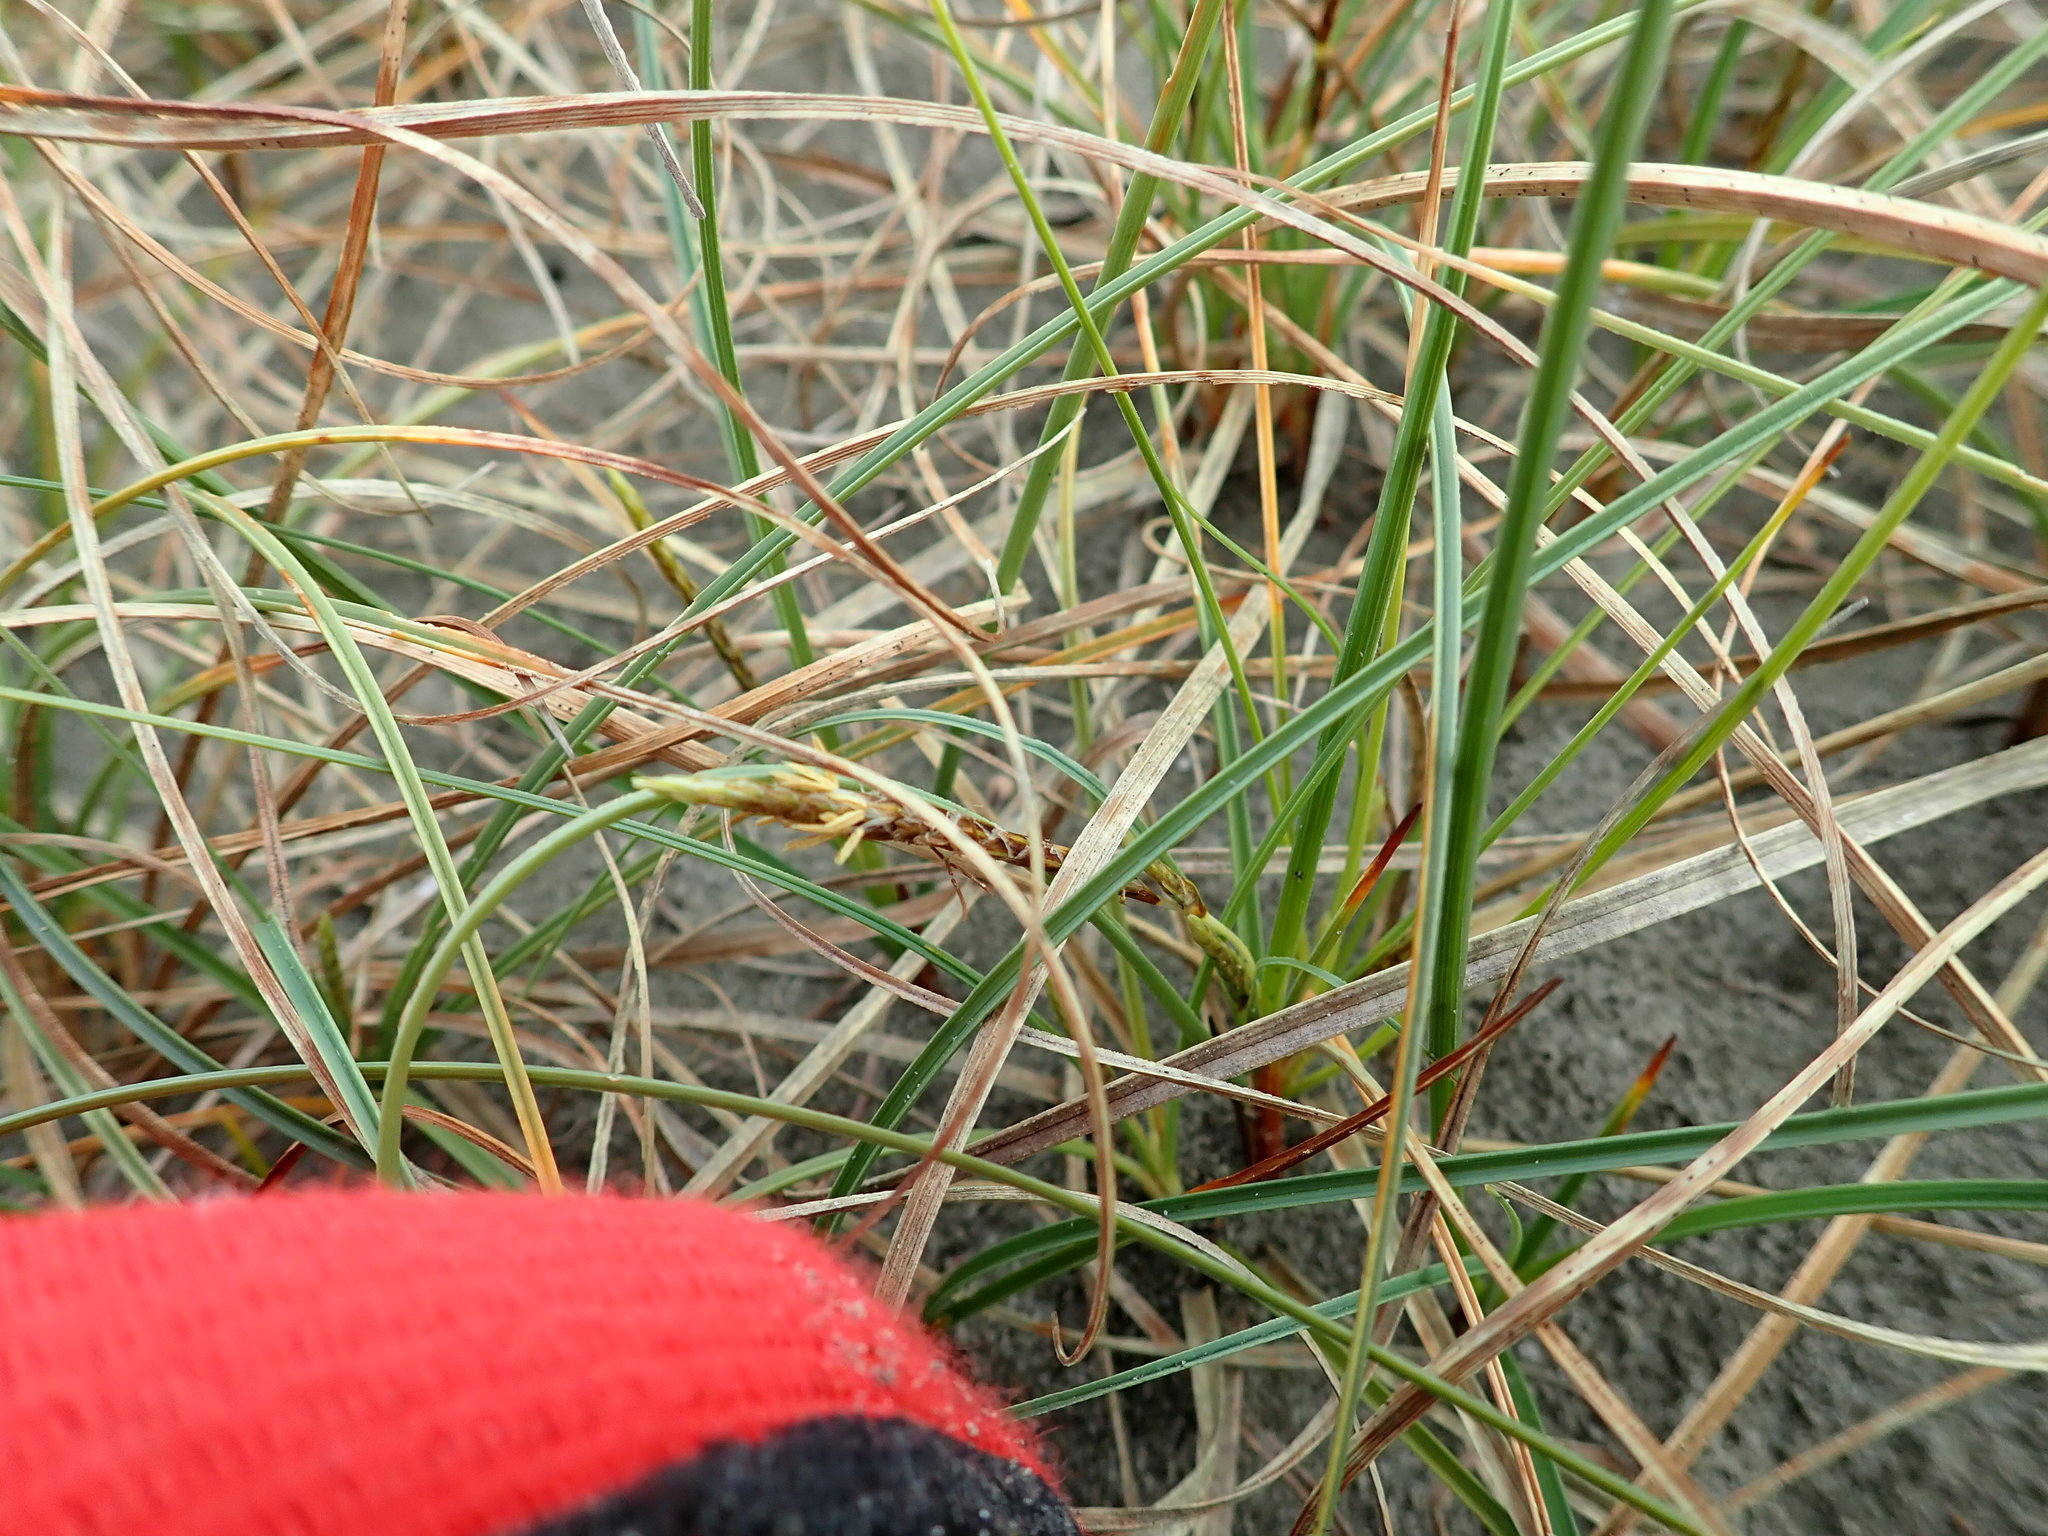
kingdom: Plantae
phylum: Tracheophyta
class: Liliopsida
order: Poales
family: Cyperaceae
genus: Carex
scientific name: Carex pumila
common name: Dwarf sedge
